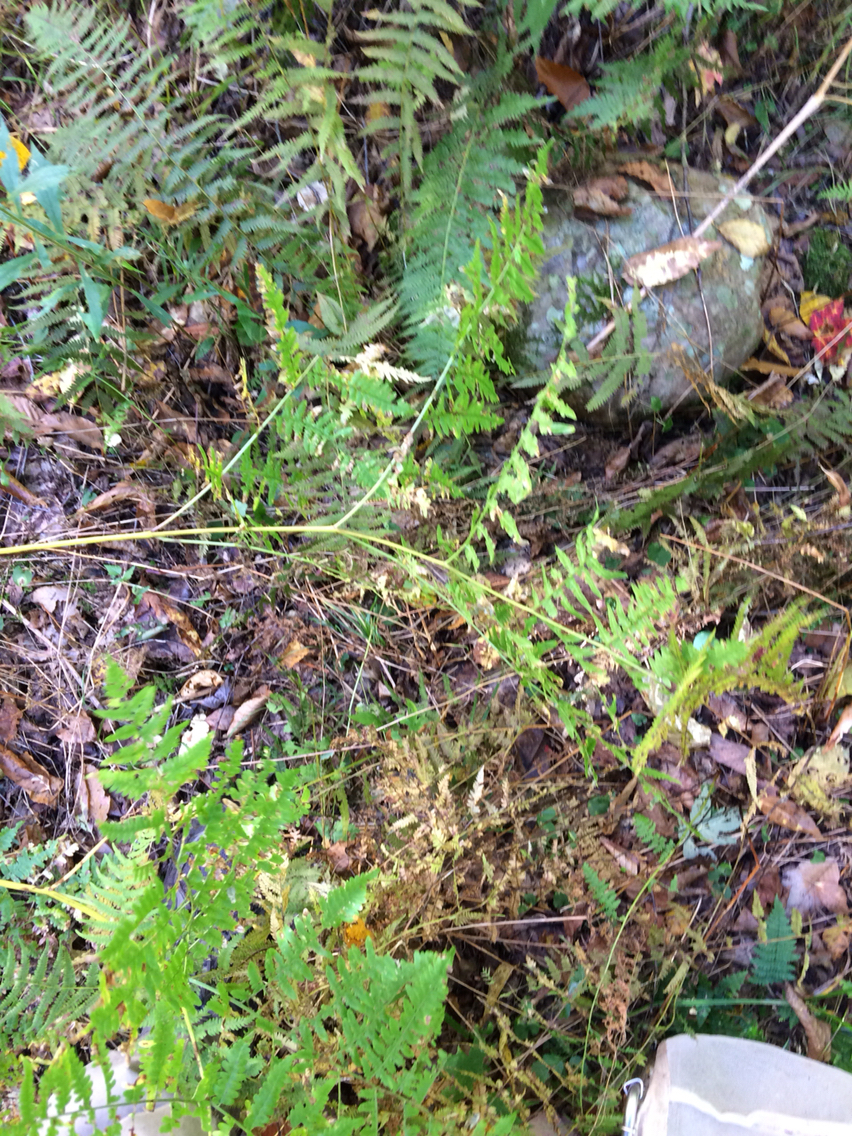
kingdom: Plantae
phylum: Tracheophyta
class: Polypodiopsida
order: Polypodiales
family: Dennstaedtiaceae
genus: Pteridium
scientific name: Pteridium aquilinum
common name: Bracken
